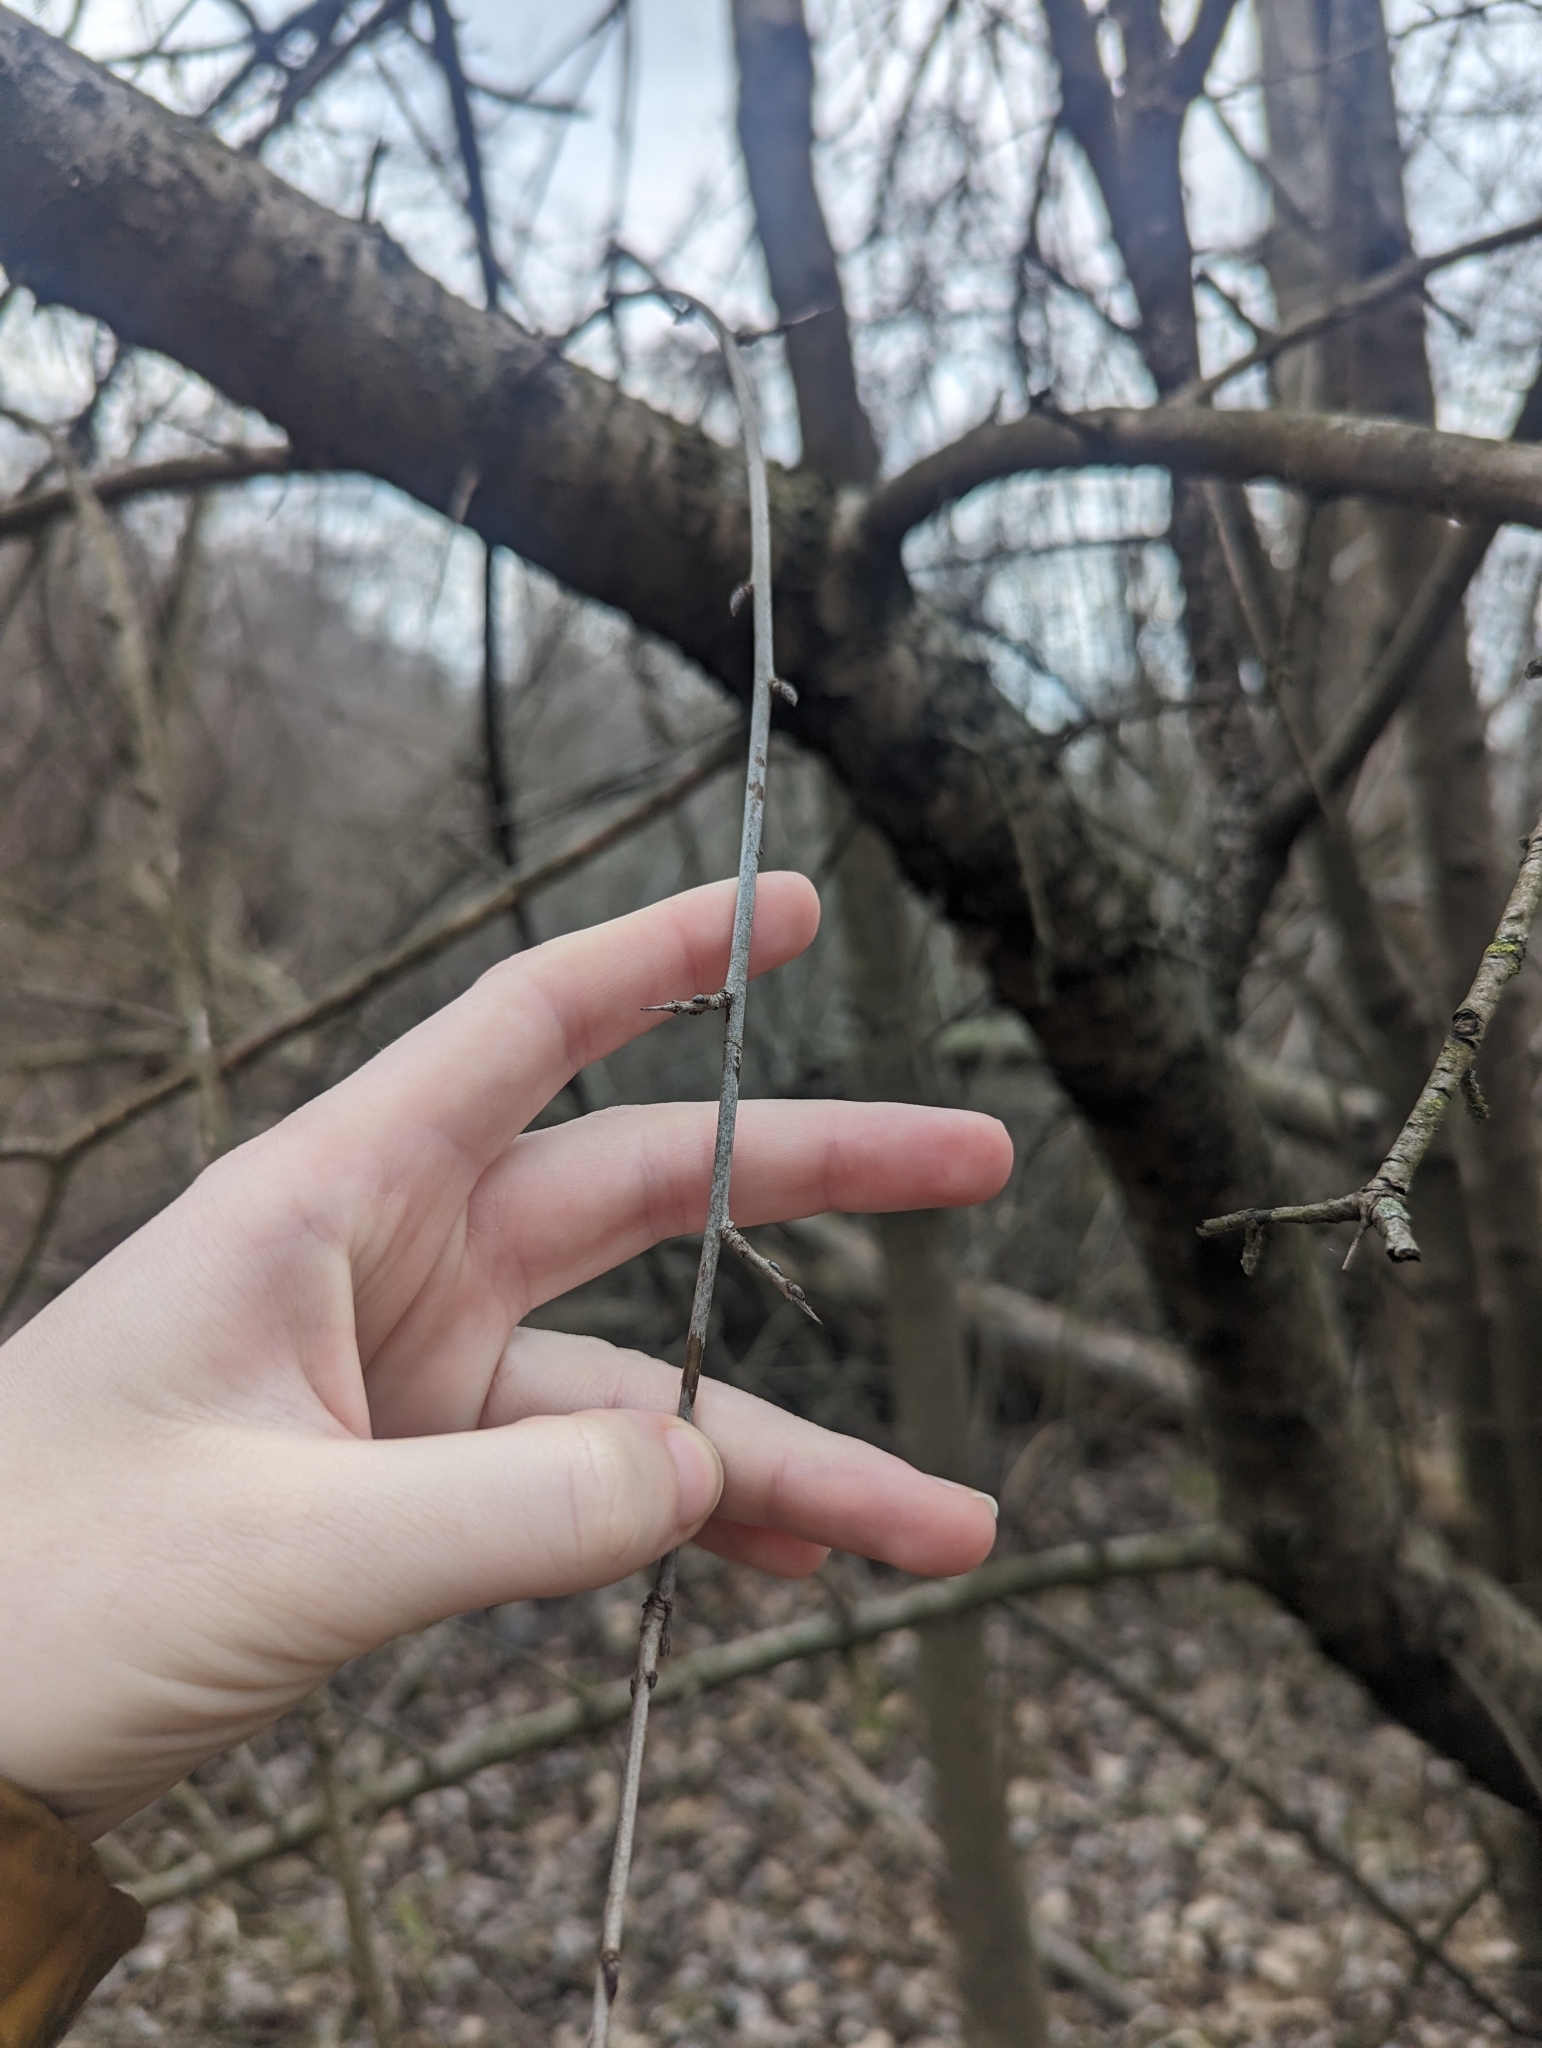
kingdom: Plantae
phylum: Tracheophyta
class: Magnoliopsida
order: Rosales
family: Rhamnaceae
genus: Rhamnus
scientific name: Rhamnus cathartica
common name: Common buckthorn
